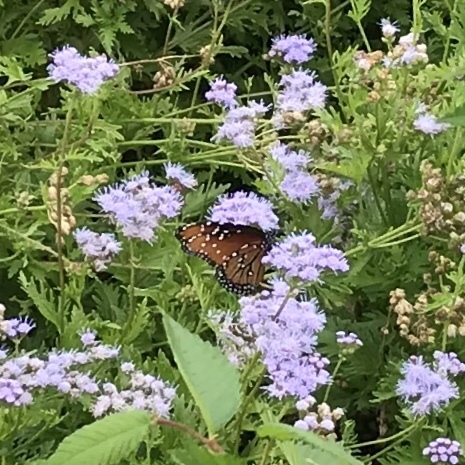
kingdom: Animalia
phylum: Arthropoda
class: Insecta
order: Lepidoptera
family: Nymphalidae
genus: Danaus
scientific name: Danaus gilippus
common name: Queen
